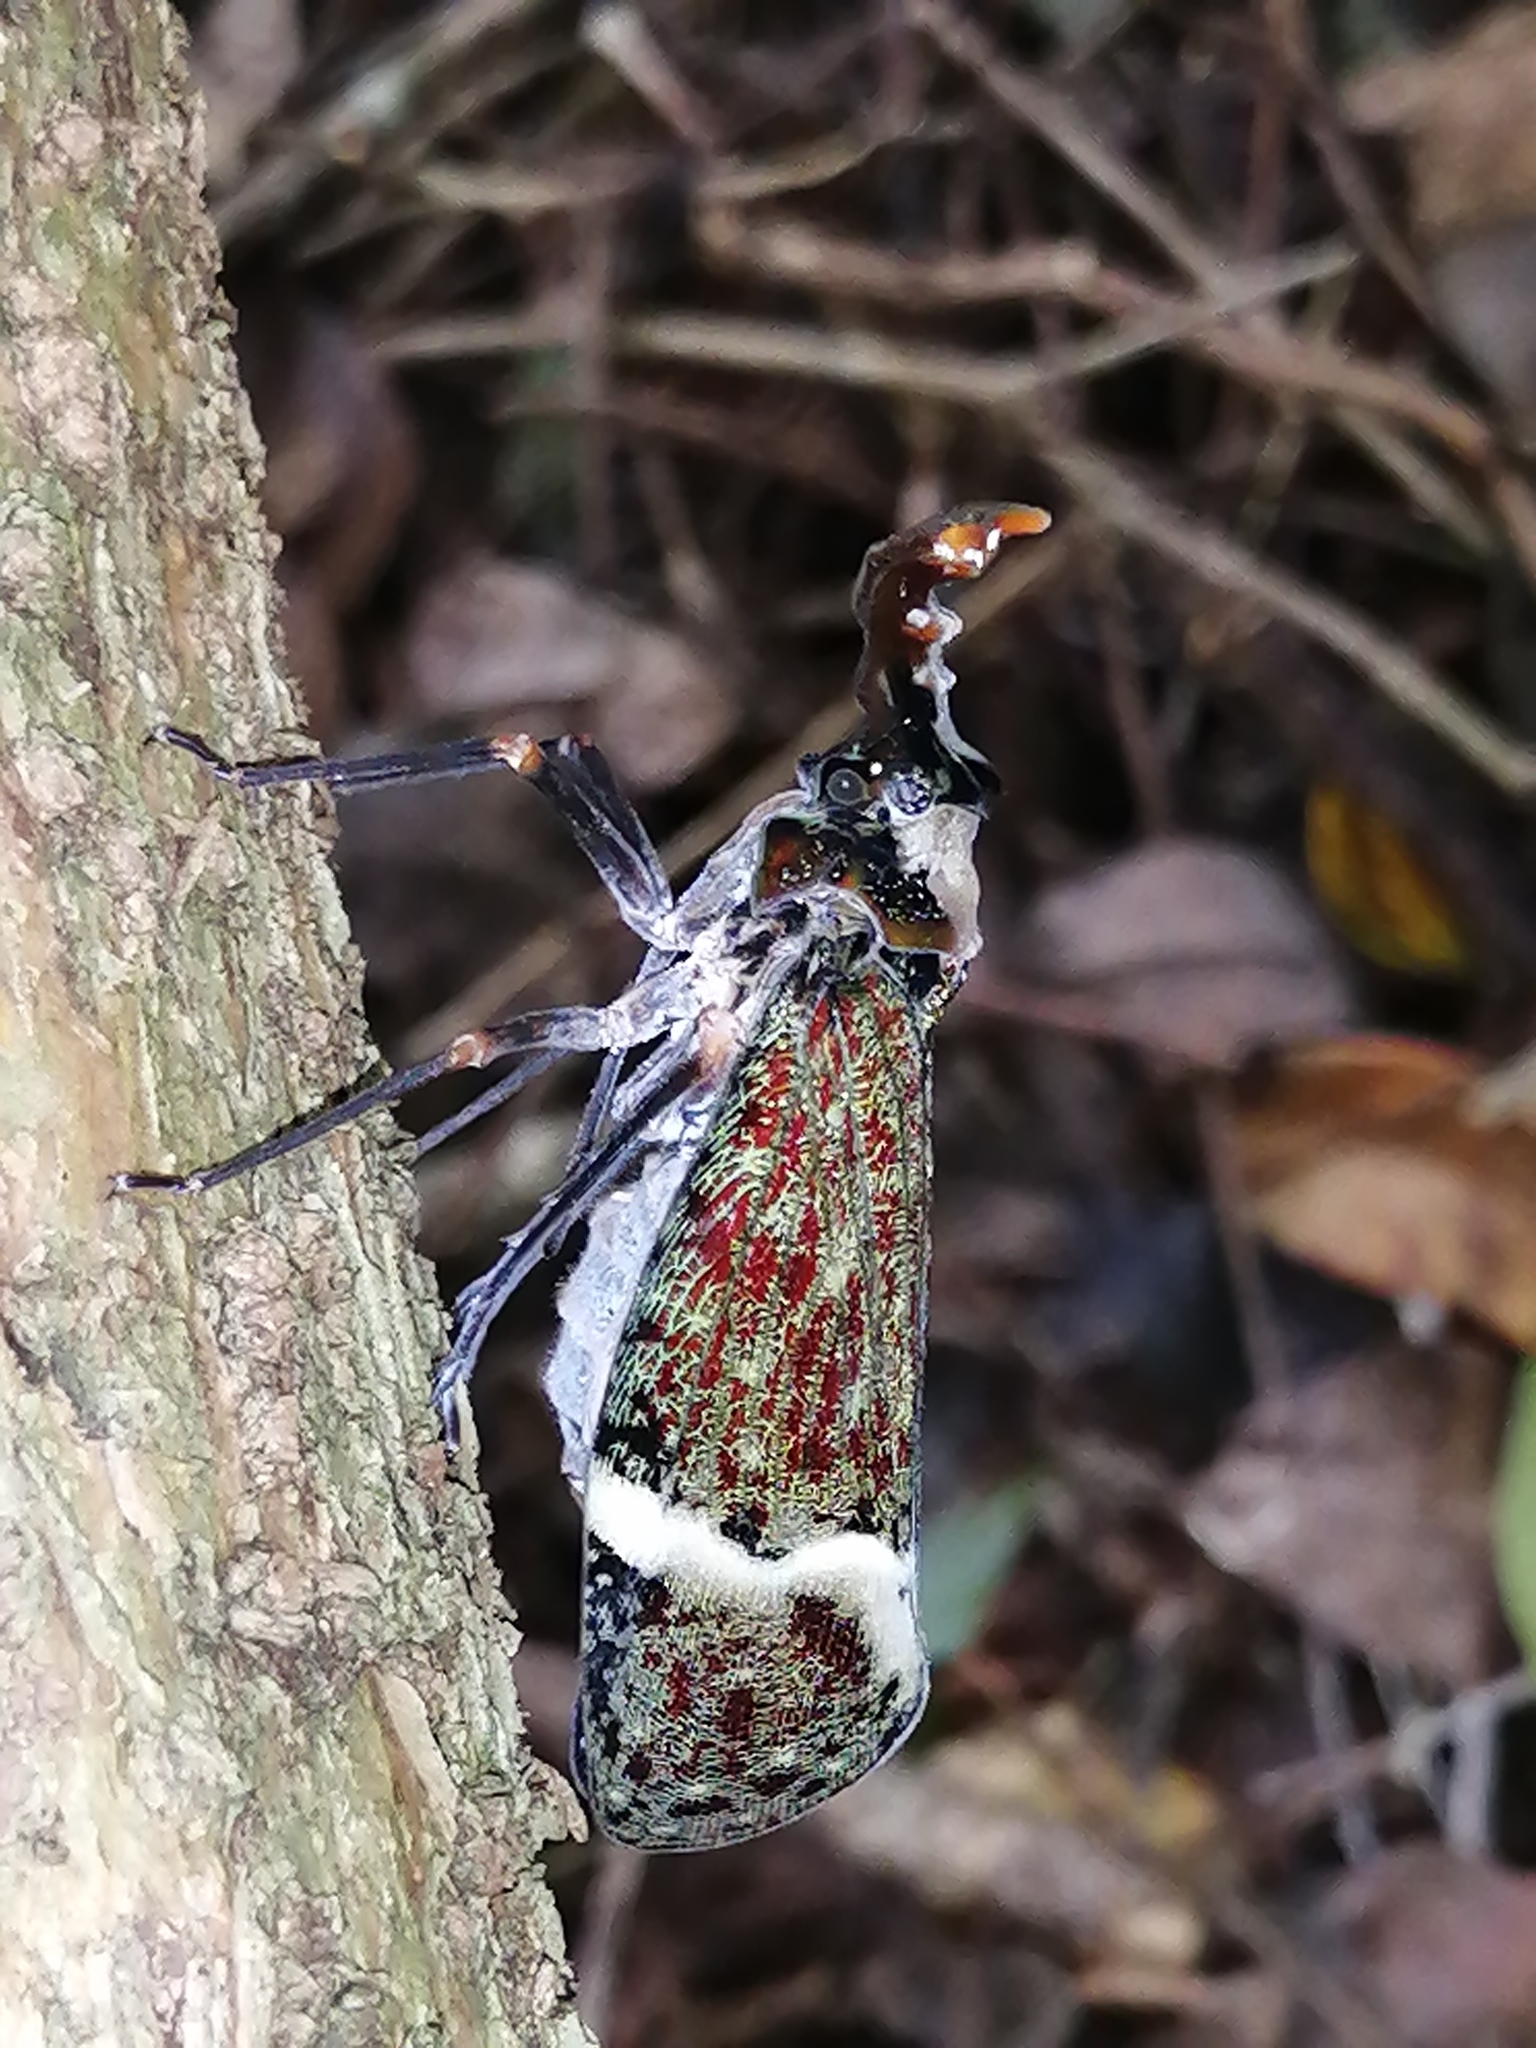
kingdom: Animalia
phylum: Arthropoda
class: Insecta
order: Hemiptera
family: Fulgoridae
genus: Phrictus
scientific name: Phrictus tripartitus
